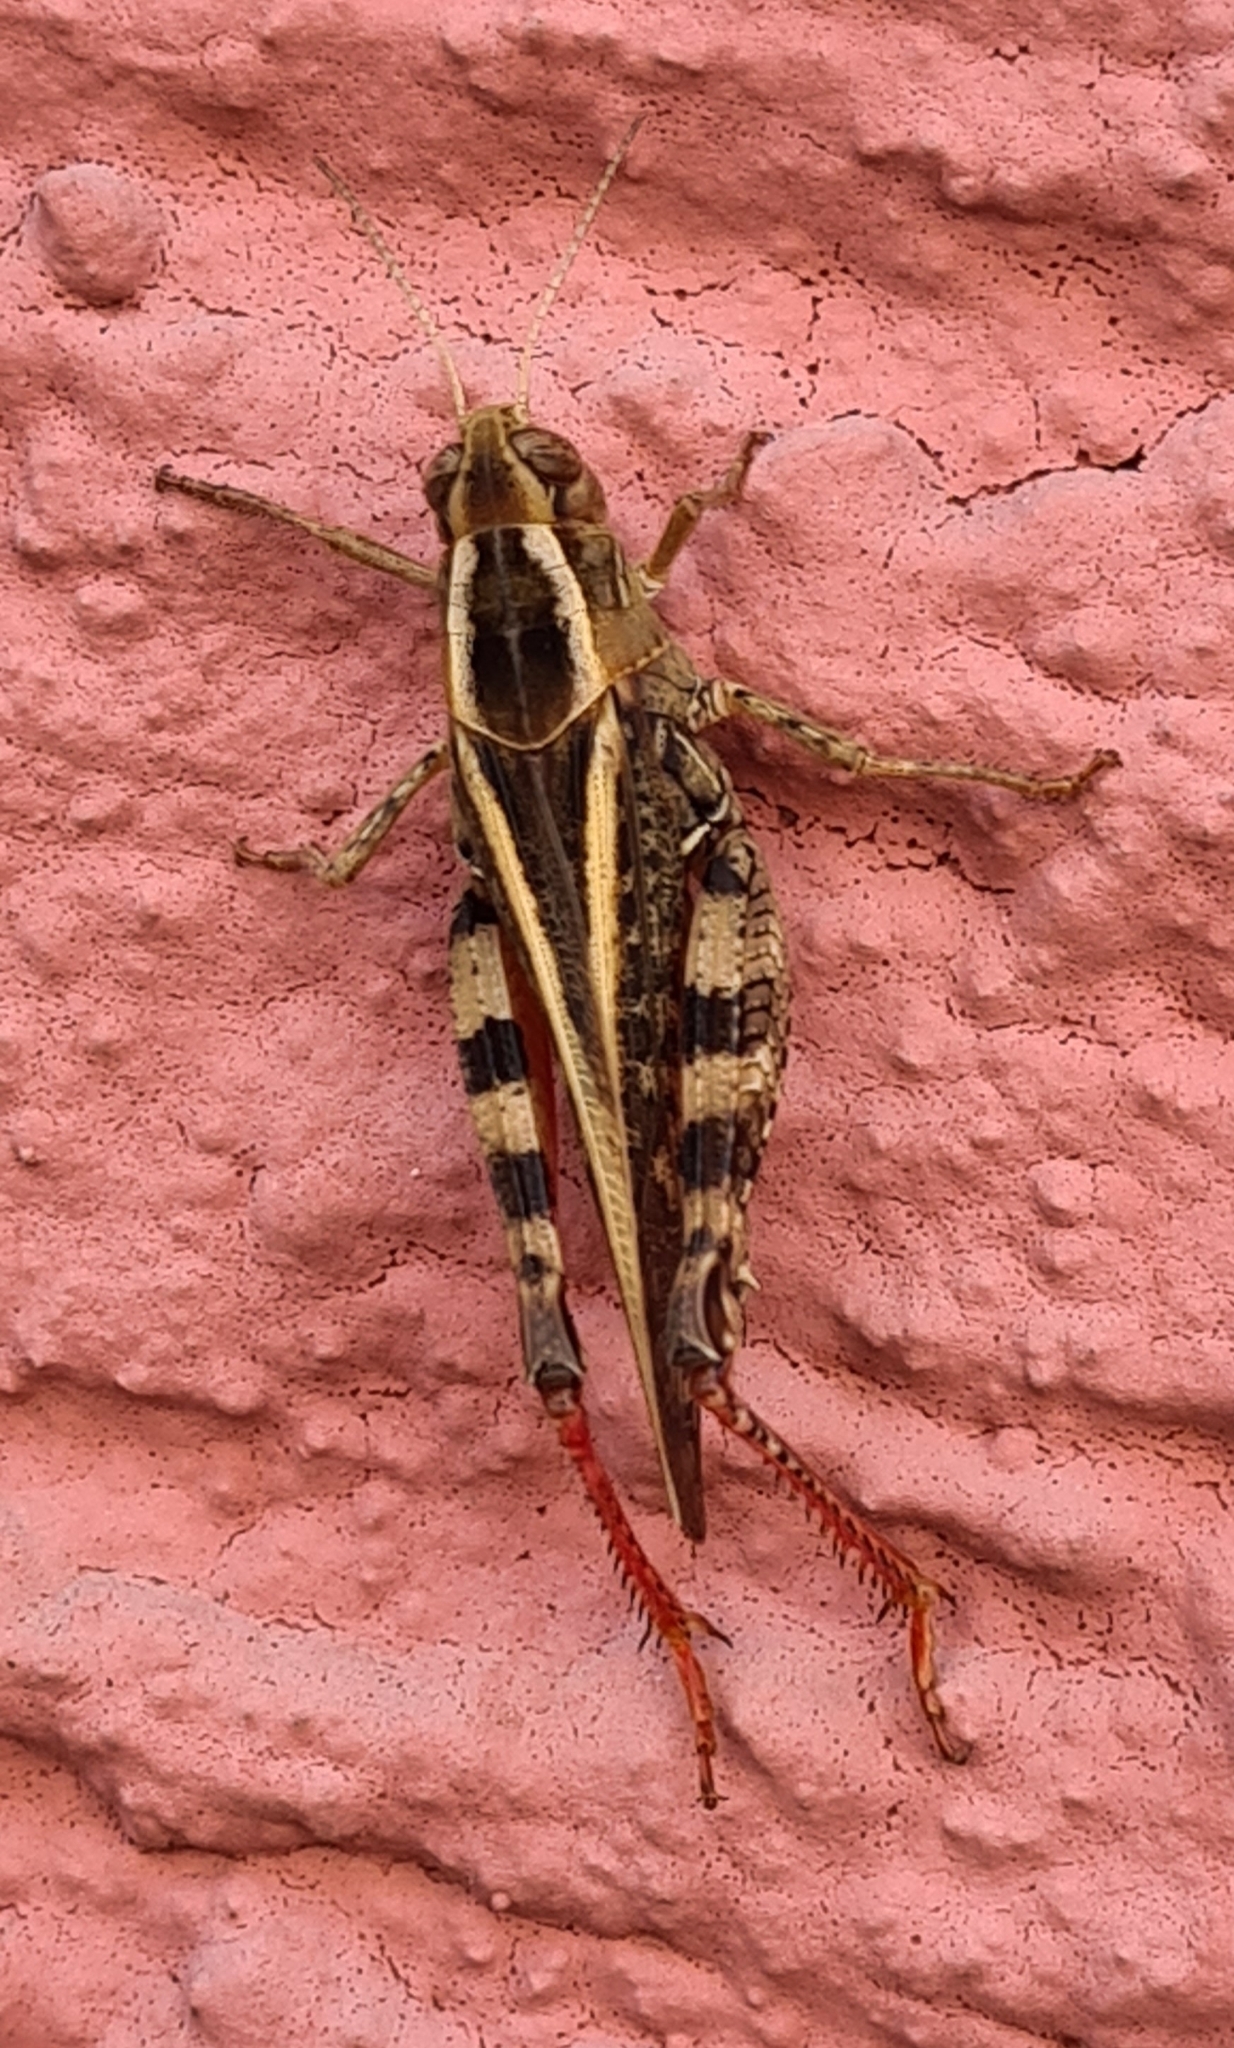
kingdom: Animalia
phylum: Arthropoda
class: Insecta
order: Orthoptera
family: Acrididae
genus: Calliptamus
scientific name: Calliptamus italicus
